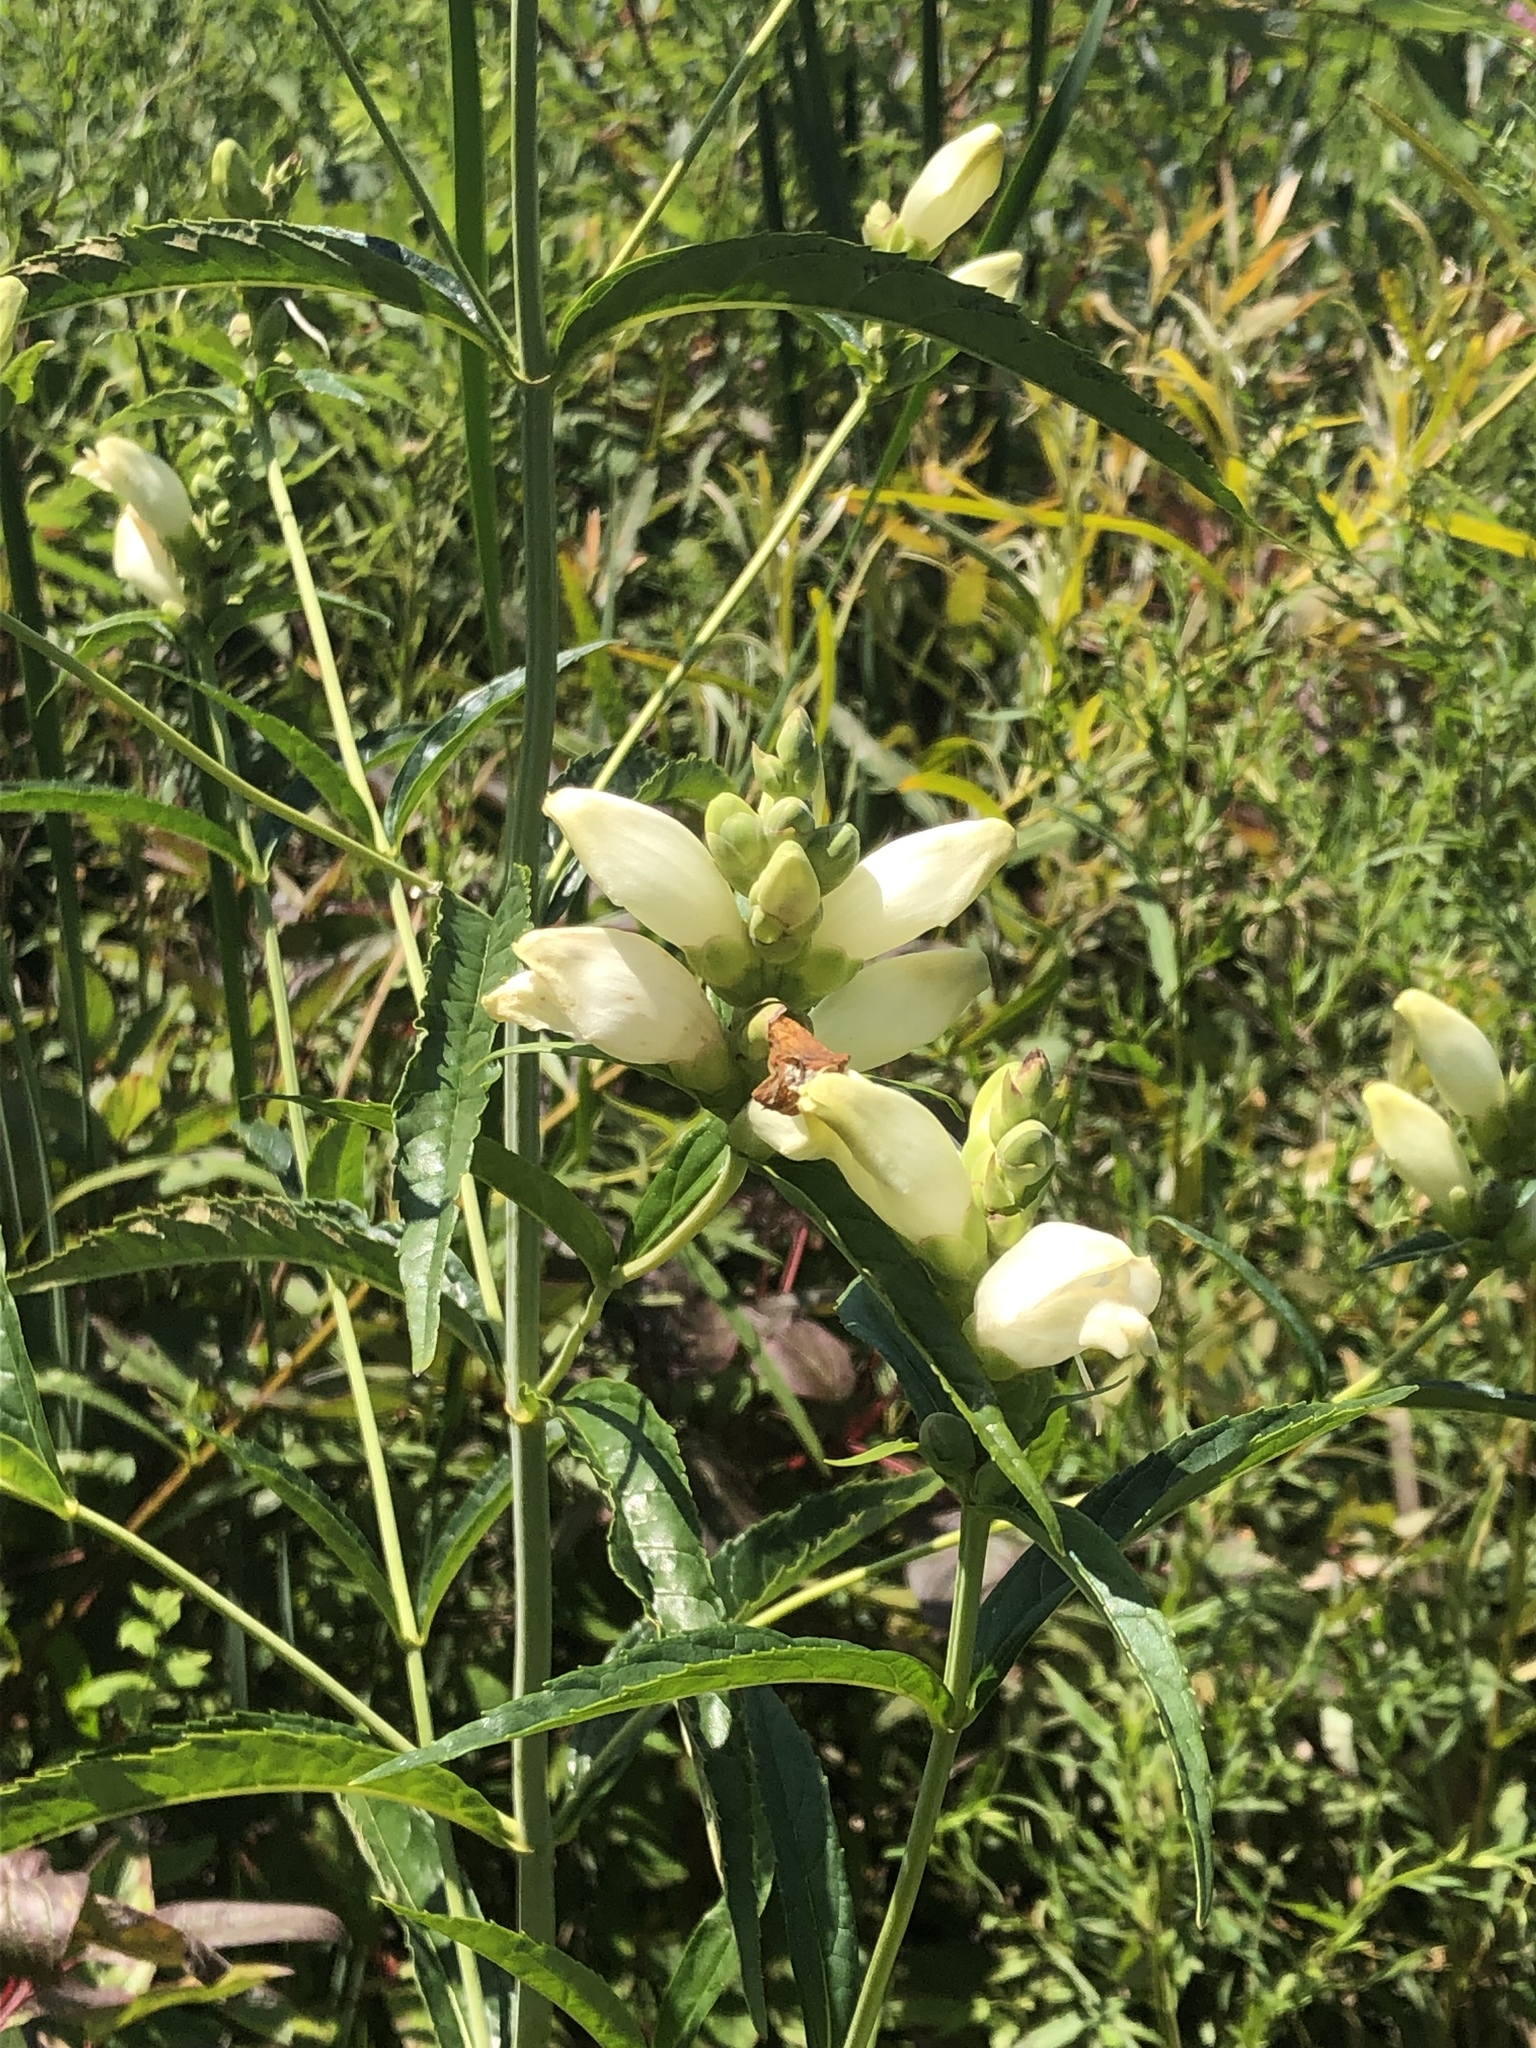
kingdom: Plantae
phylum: Tracheophyta
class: Magnoliopsida
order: Lamiales
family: Plantaginaceae
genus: Chelone
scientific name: Chelone glabra
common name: Snakehead
